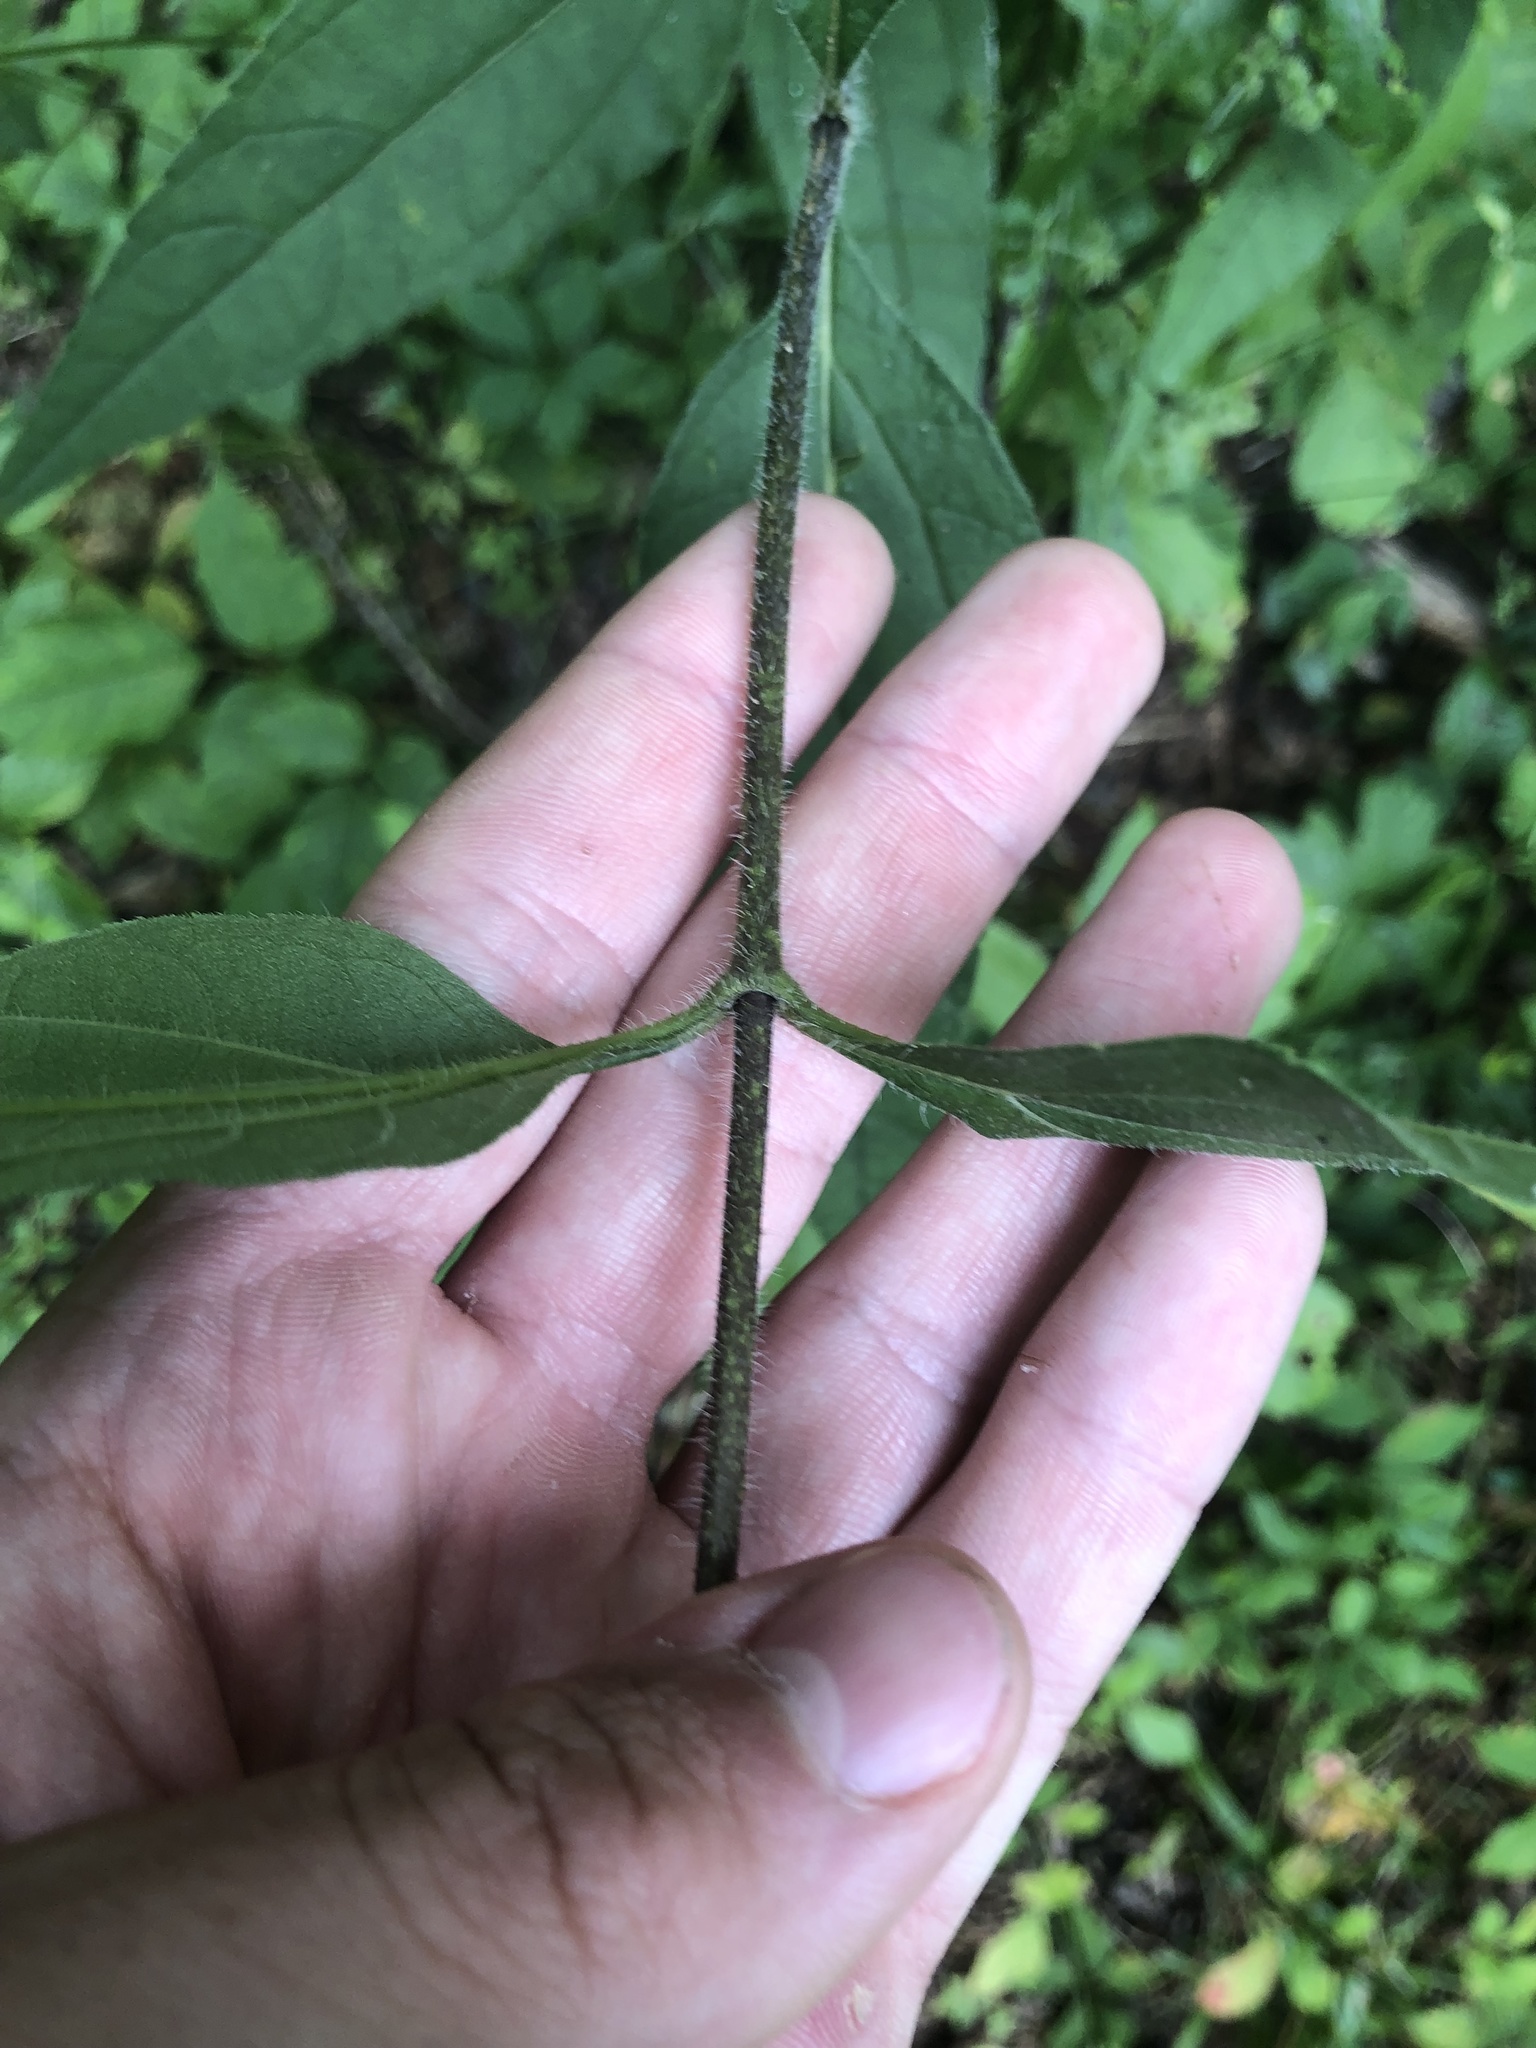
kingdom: Plantae
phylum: Tracheophyta
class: Magnoliopsida
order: Asterales
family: Asteraceae
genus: Helianthus
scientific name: Helianthus hirsutus
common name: Hairy sunflower
